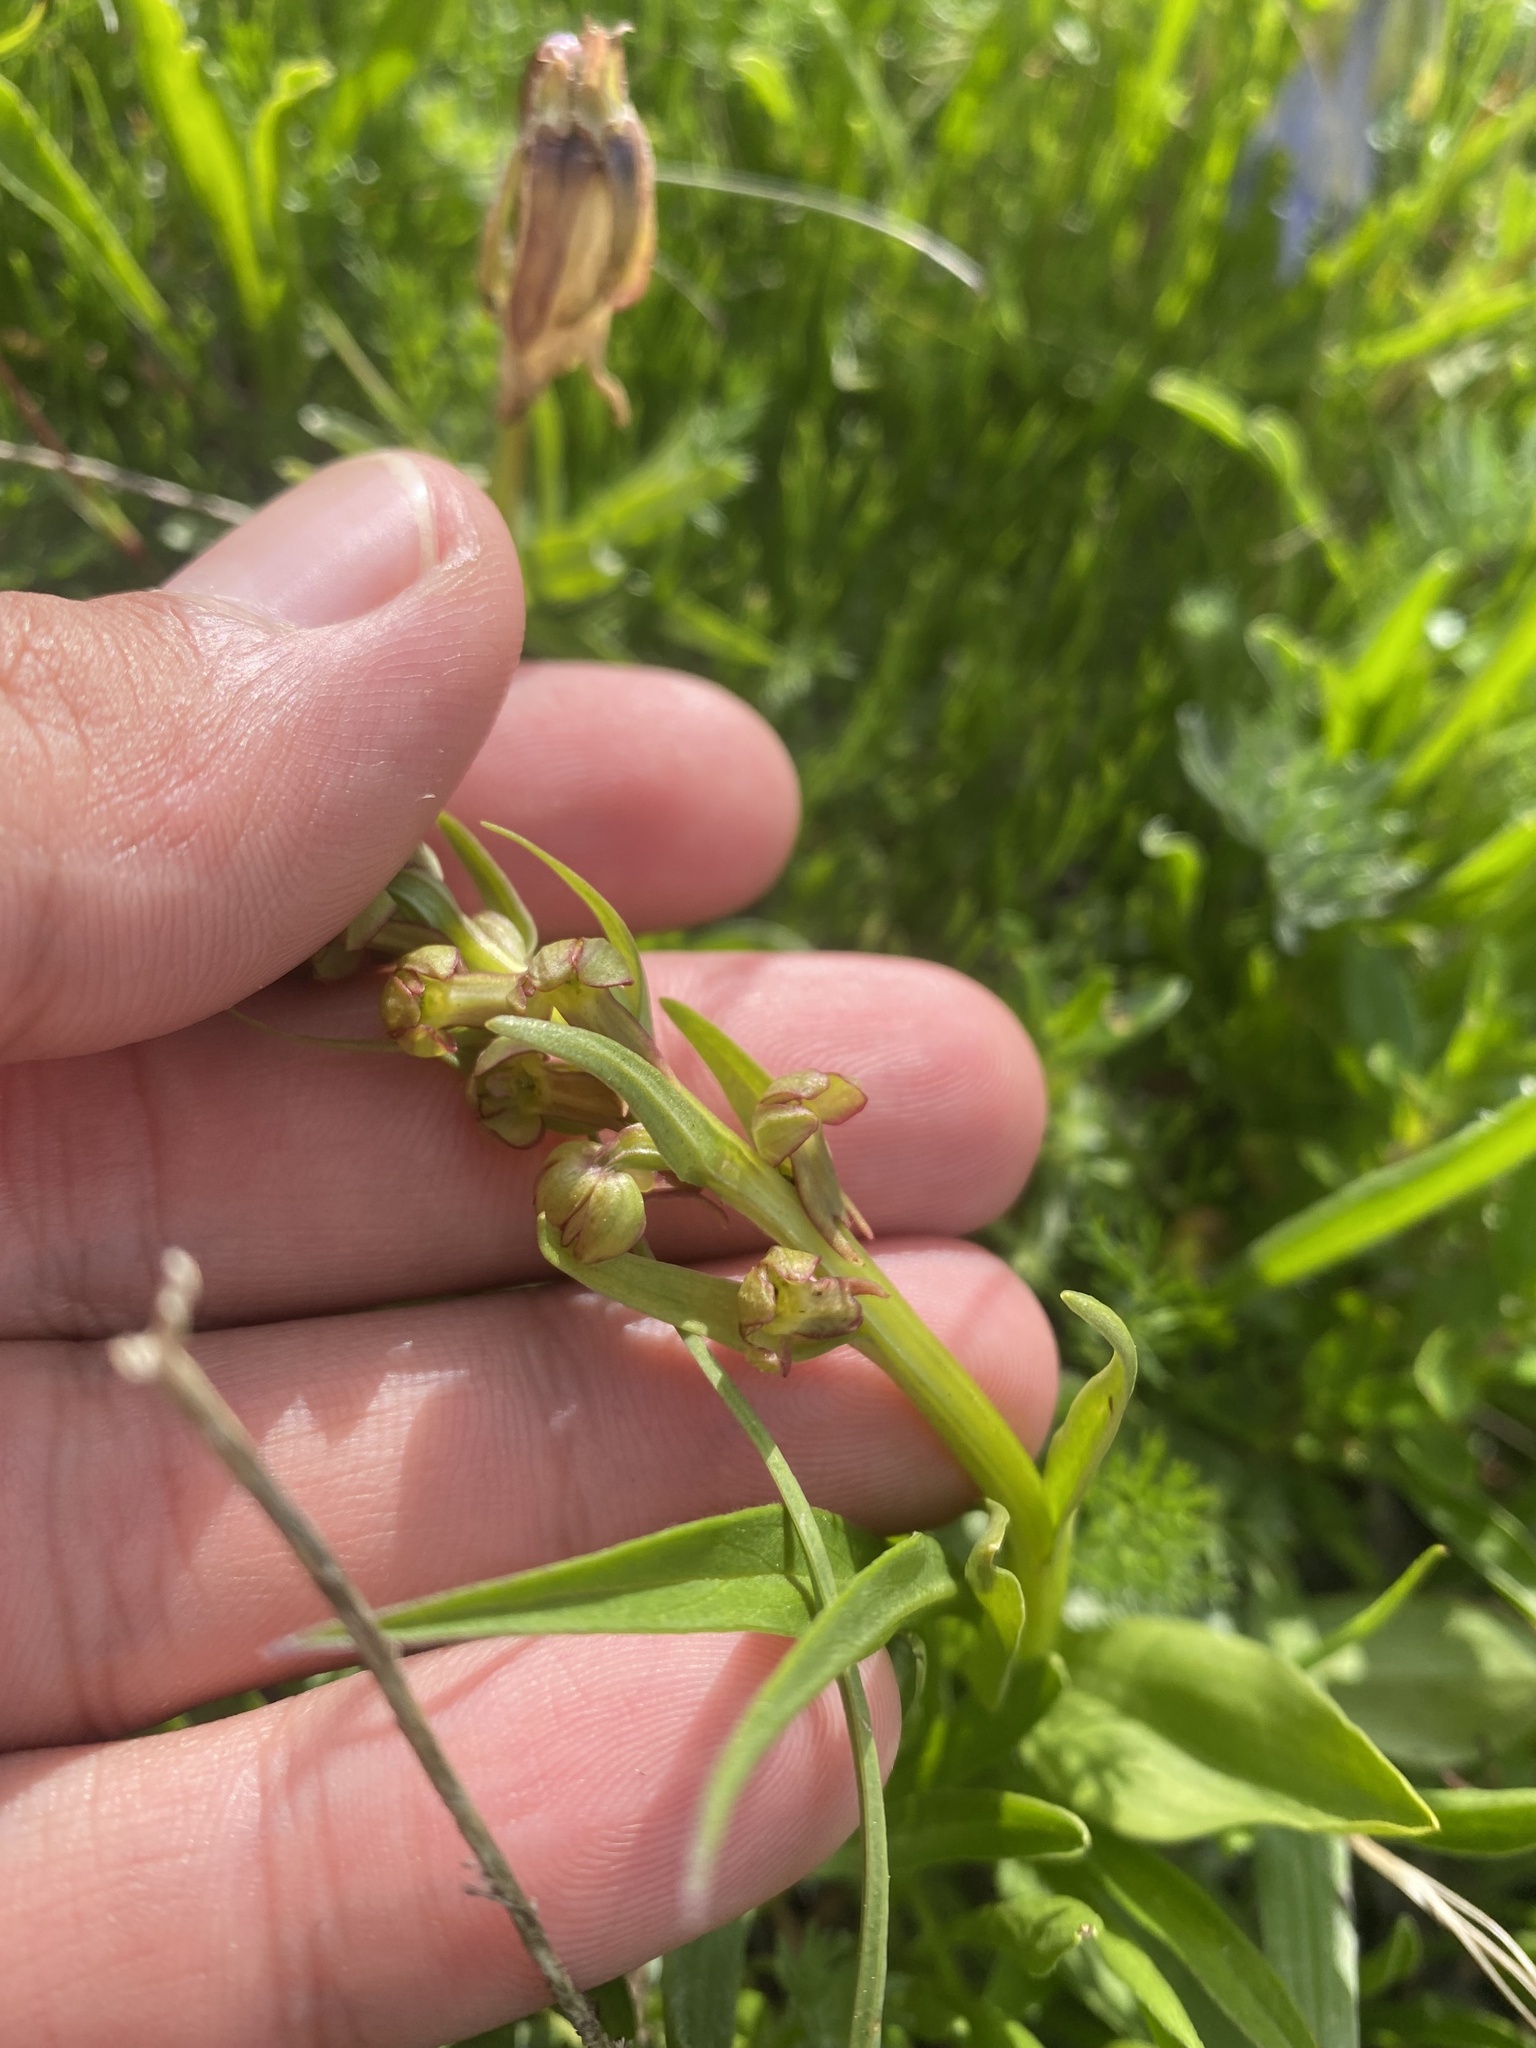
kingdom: Plantae
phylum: Tracheophyta
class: Liliopsida
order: Asparagales
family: Orchidaceae
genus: Dactylorhiza
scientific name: Dactylorhiza viridis
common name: Longbract frog orchid
